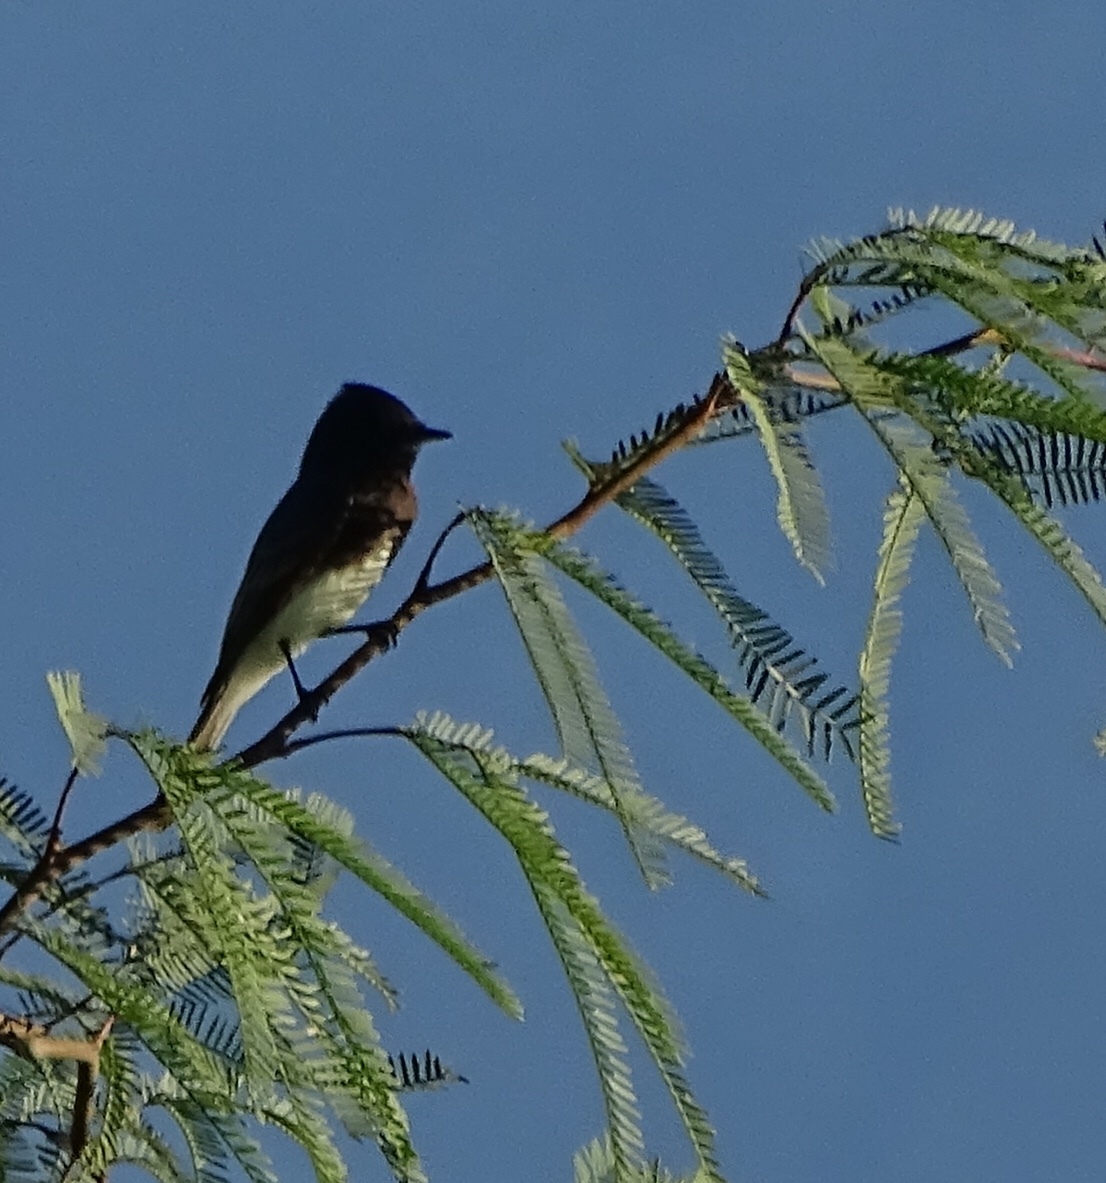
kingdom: Animalia
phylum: Chordata
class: Aves
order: Passeriformes
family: Tyrannidae
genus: Sayornis
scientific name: Sayornis nigricans
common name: Black phoebe
